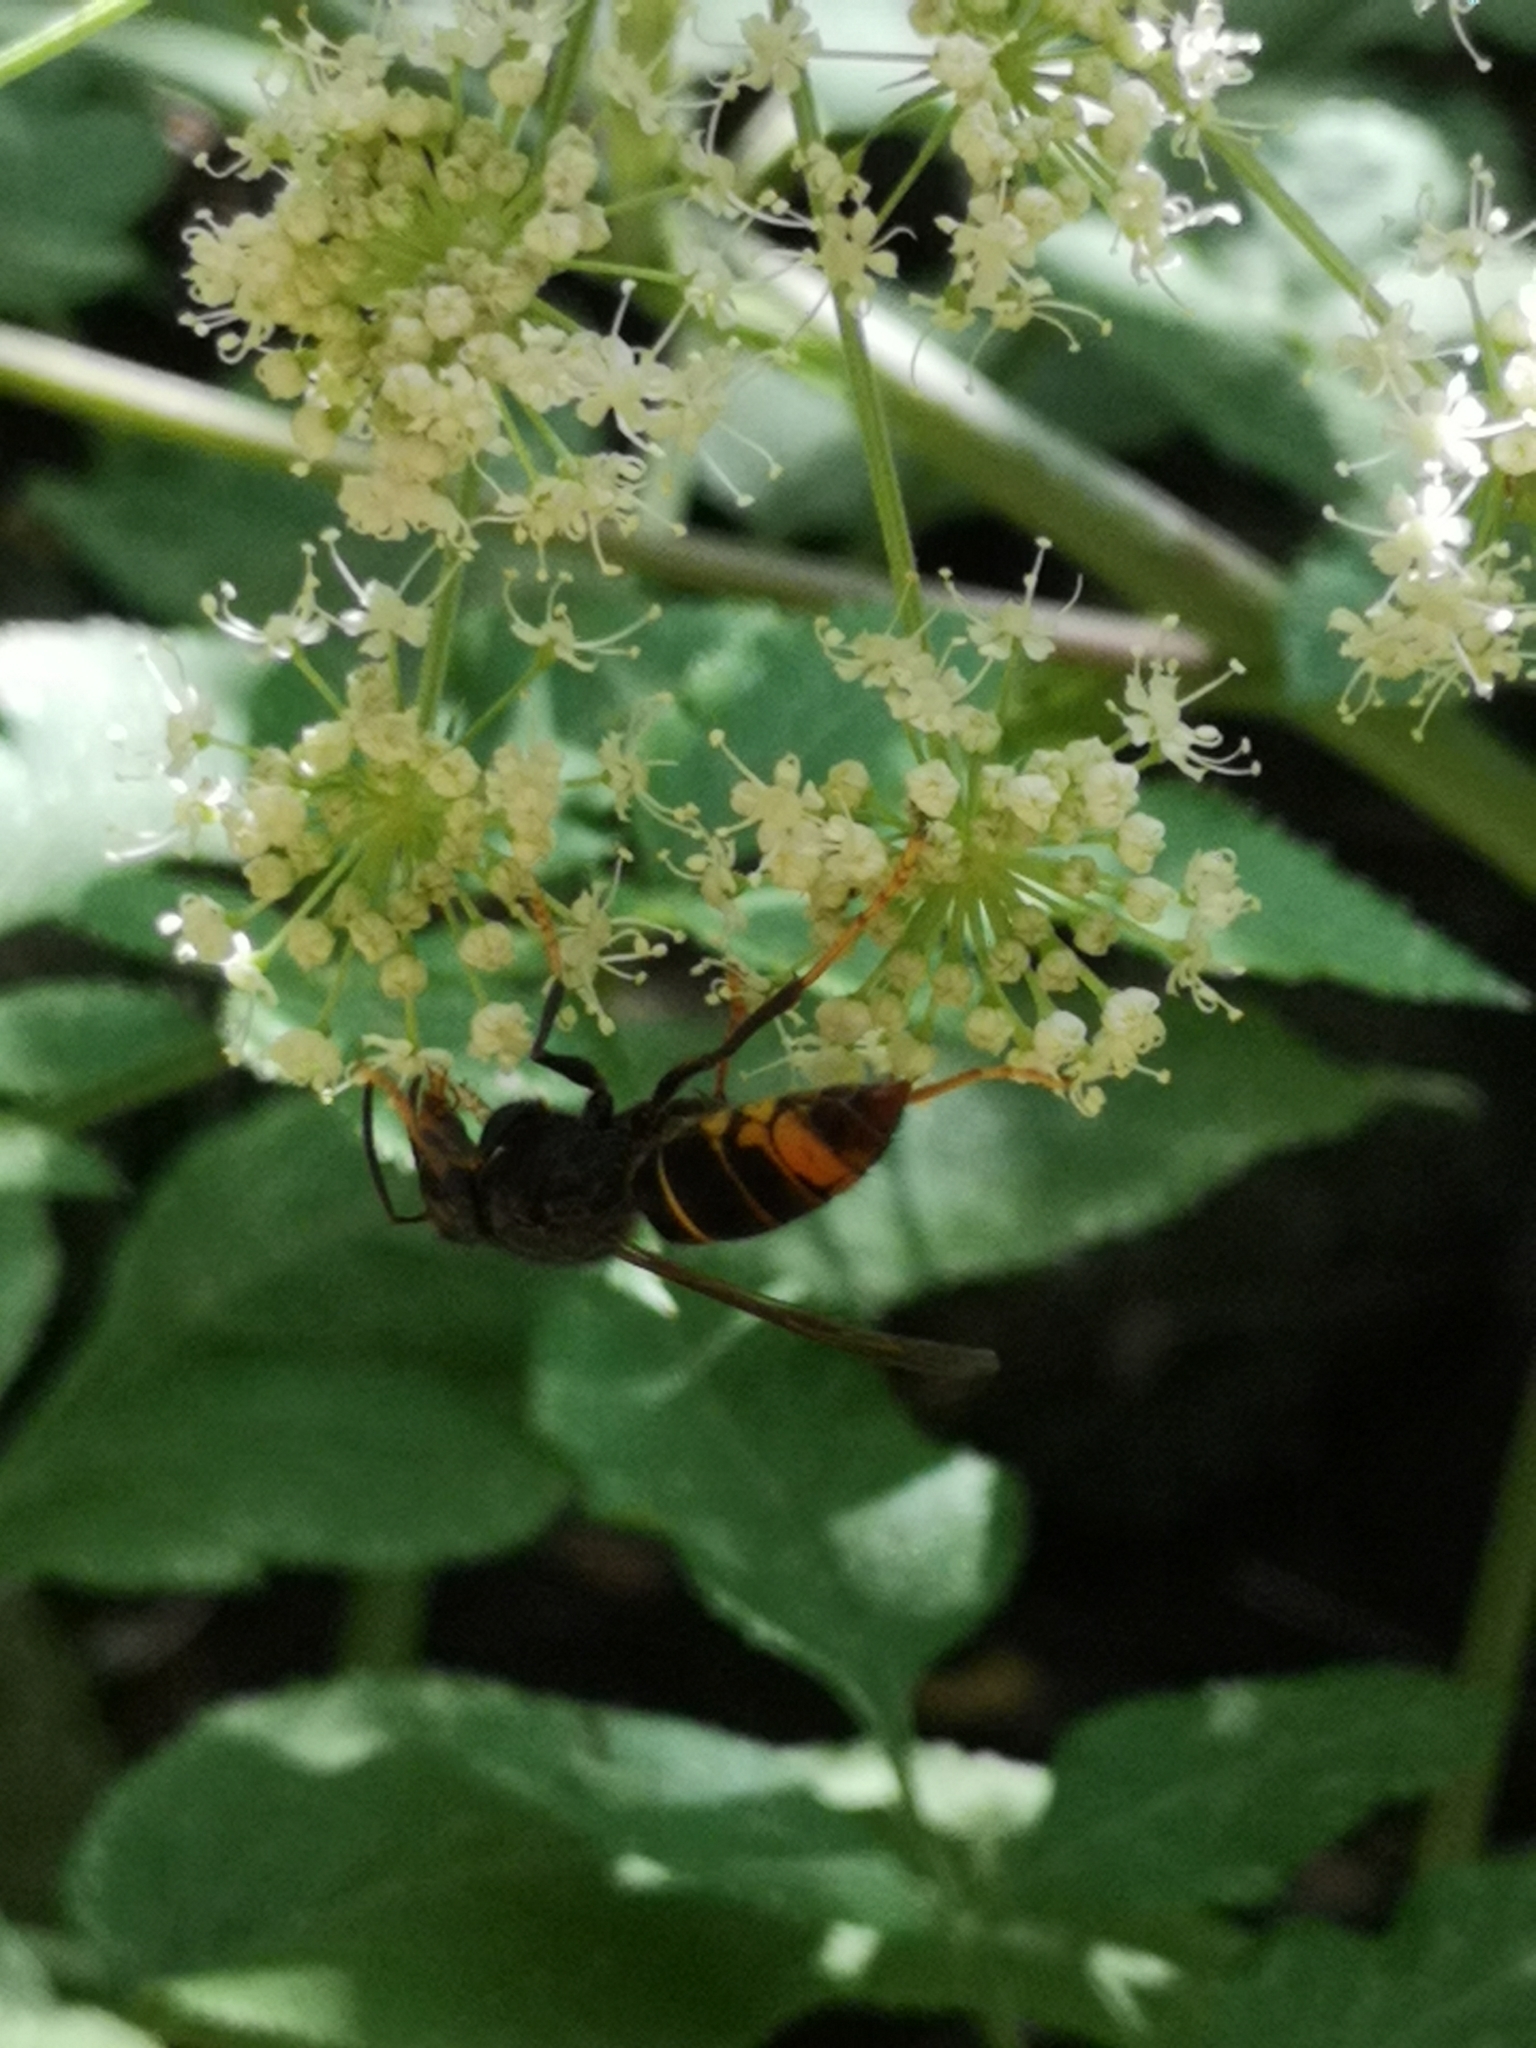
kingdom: Animalia
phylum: Arthropoda
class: Insecta
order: Hymenoptera
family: Vespidae
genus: Vespa
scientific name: Vespa velutina
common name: Asian hornet
